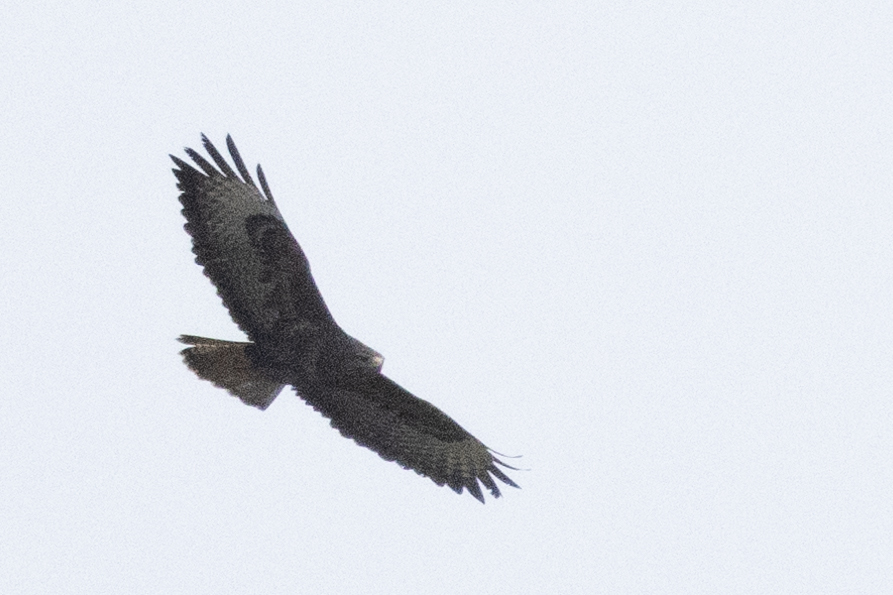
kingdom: Animalia
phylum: Chordata
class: Aves
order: Accipitriformes
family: Accipitridae
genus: Buteo
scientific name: Buteo buteo
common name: Common buzzard
